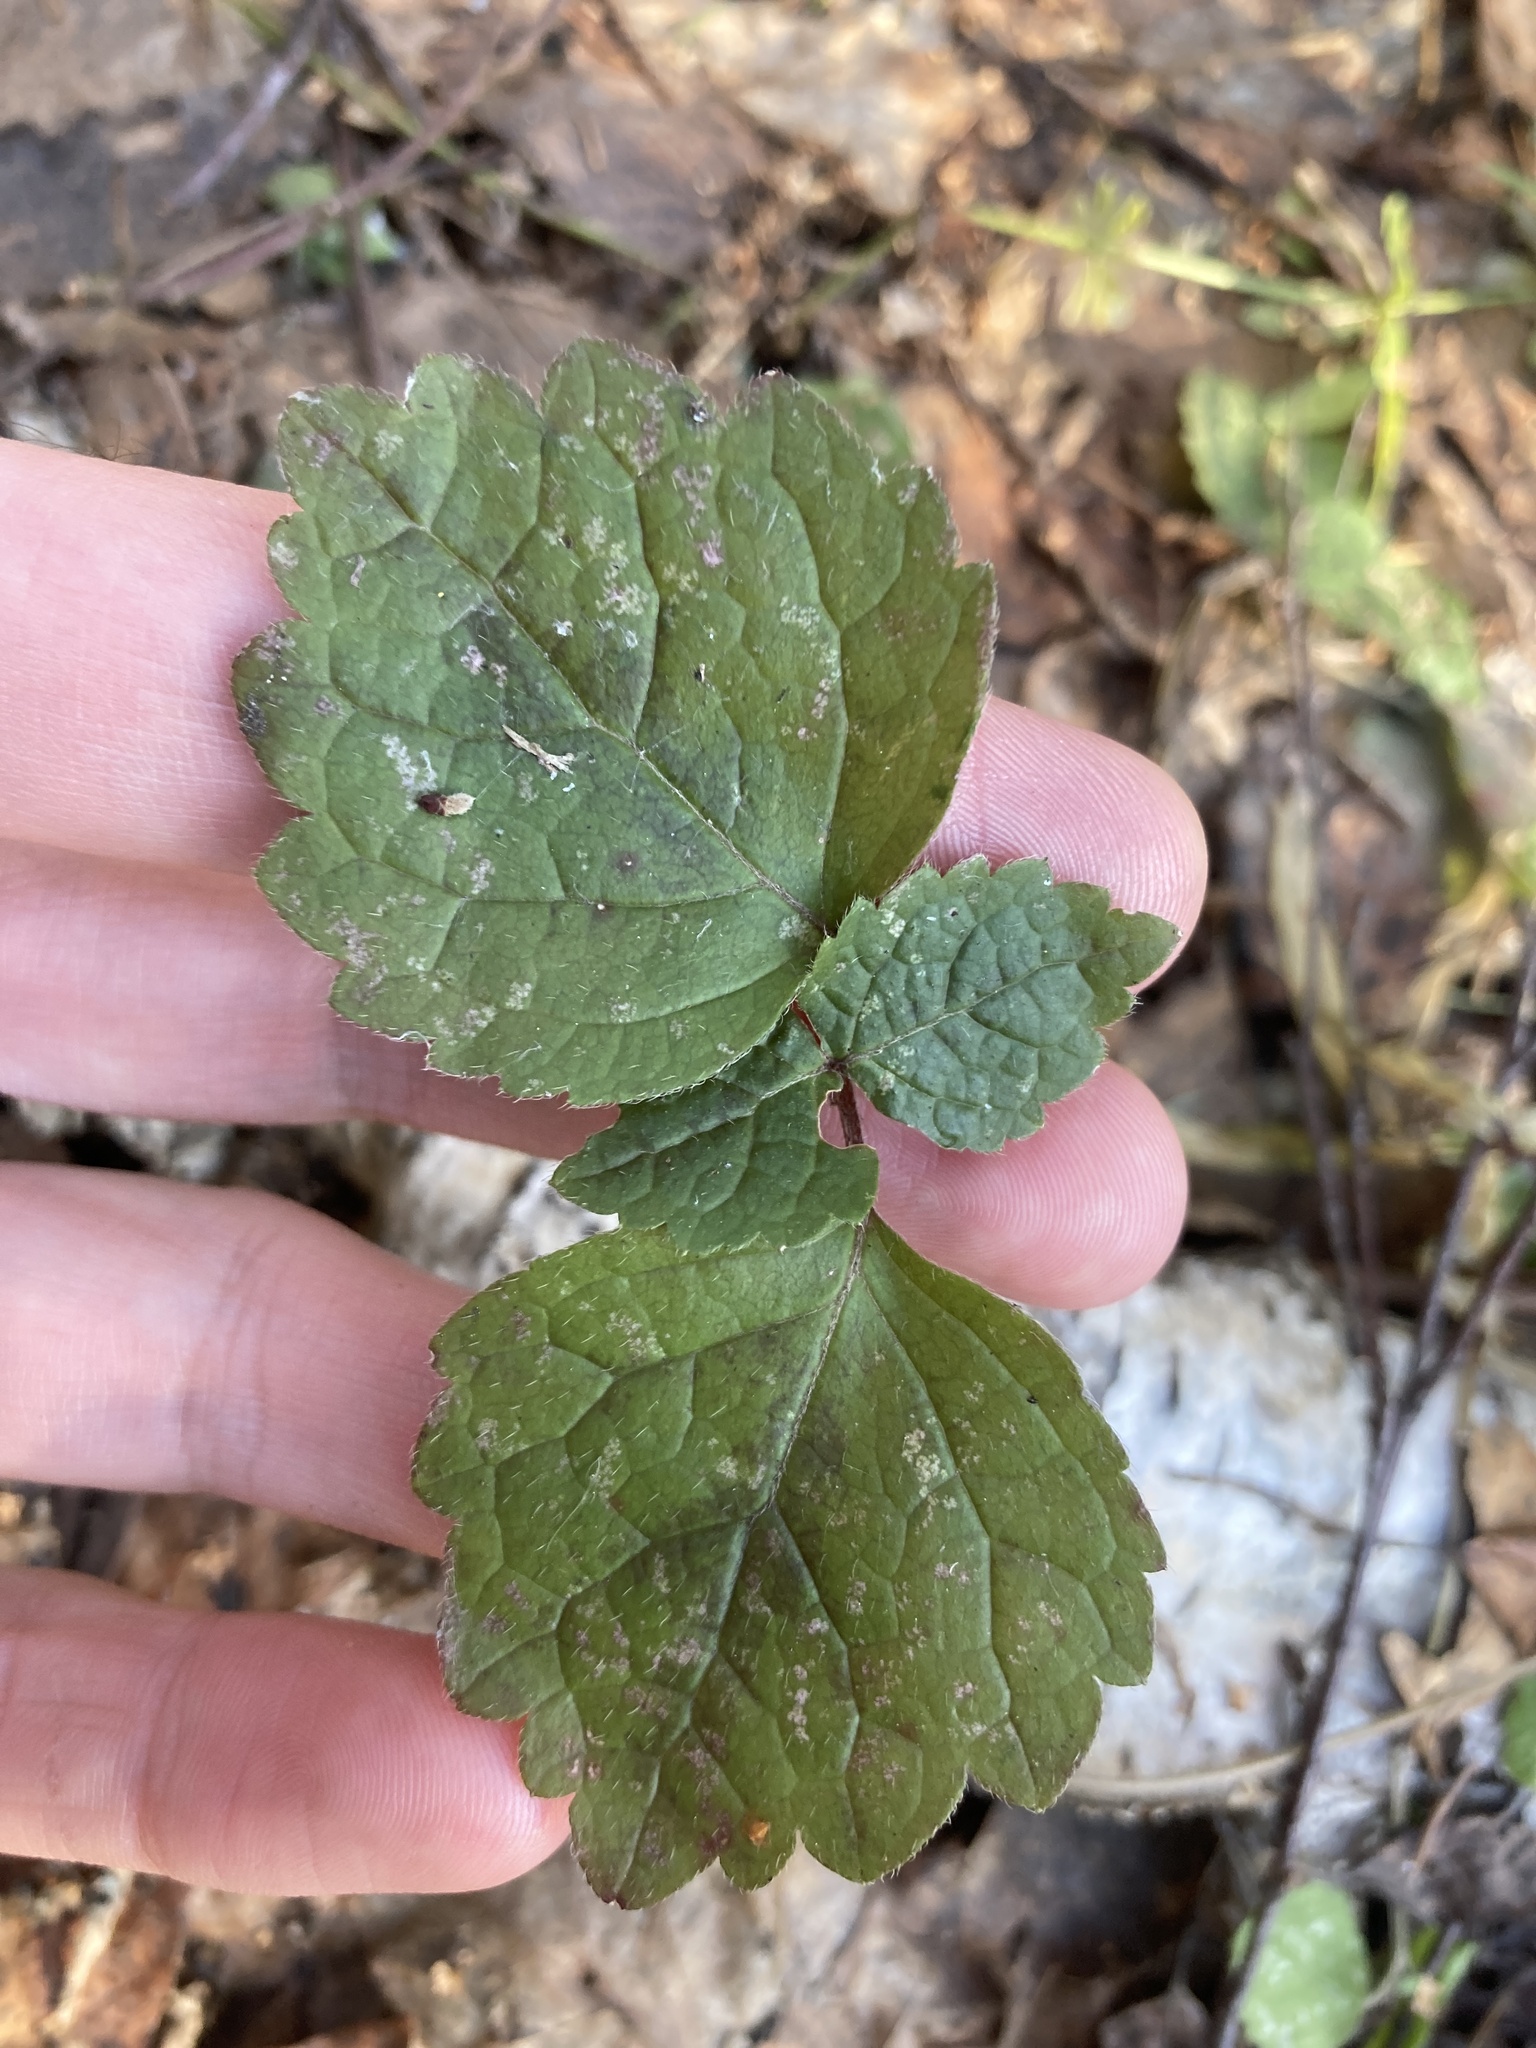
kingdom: Plantae
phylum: Tracheophyta
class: Magnoliopsida
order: Lamiales
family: Lamiaceae
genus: Lamium
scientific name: Lamium galeobdolon
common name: Yellow archangel
